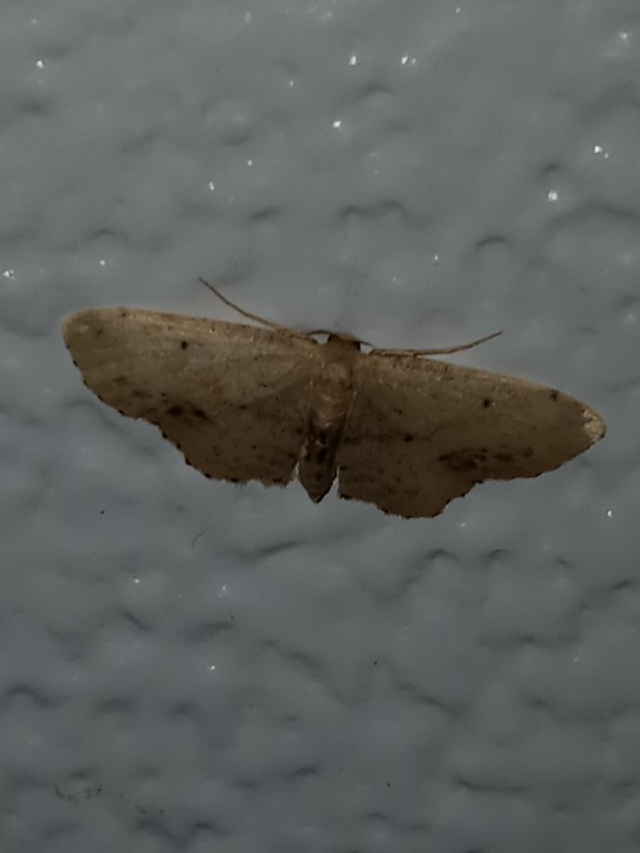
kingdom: Animalia
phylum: Arthropoda
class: Insecta
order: Lepidoptera
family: Geometridae
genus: Idaea
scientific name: Idaea dimidiata
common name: Single-dotted wave
